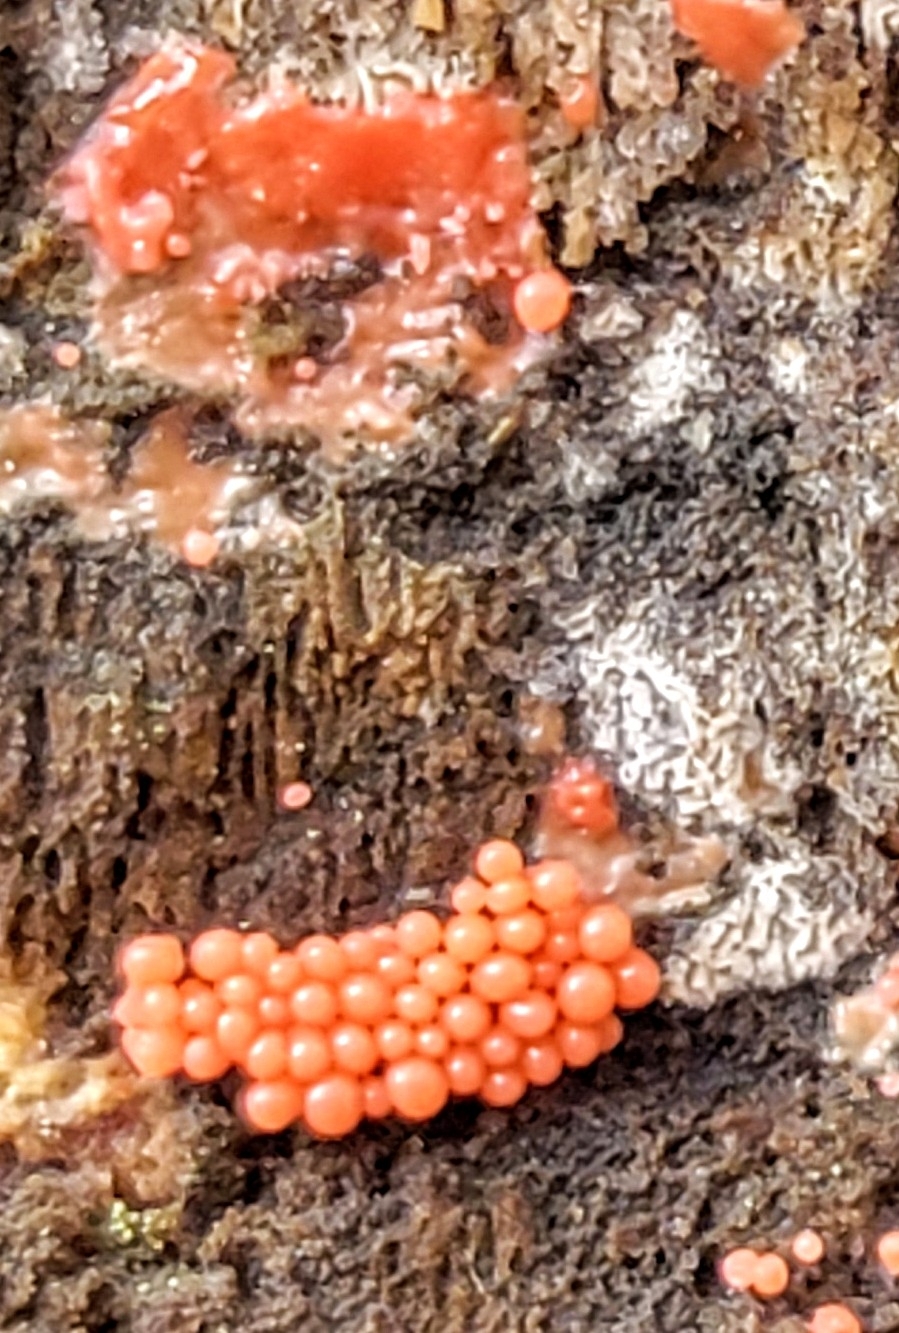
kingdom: Protozoa
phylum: Mycetozoa
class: Myxomycetes
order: Cribrariales
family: Tubiferaceae
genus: Tubifera
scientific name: Tubifera ferruginosa
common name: Red raspberry slime mold
